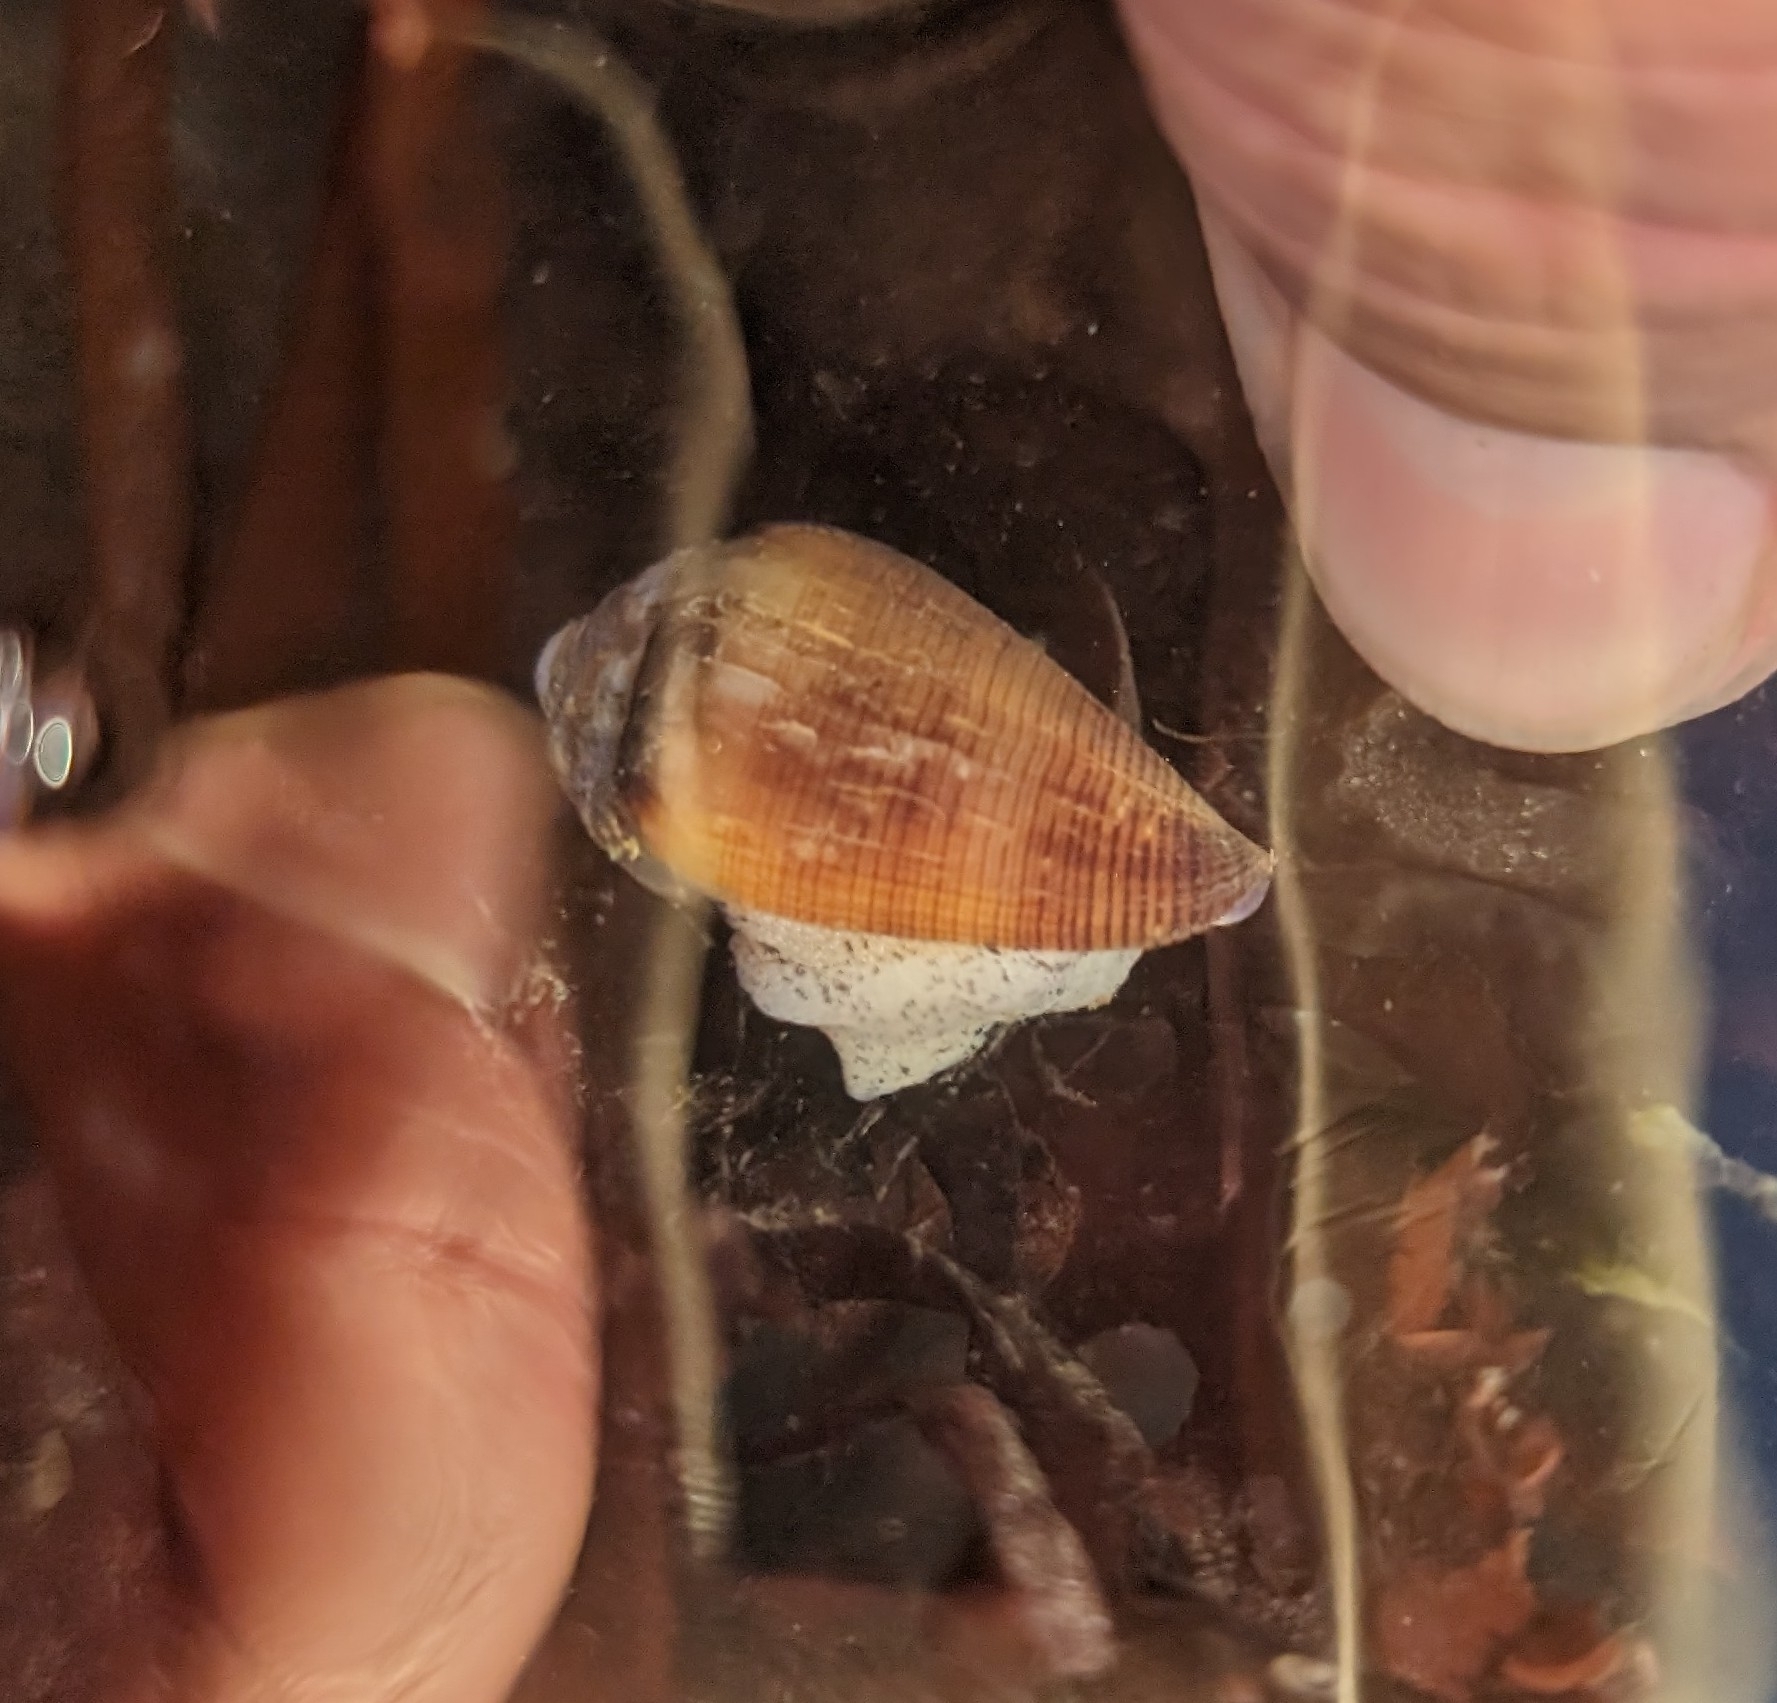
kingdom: Animalia
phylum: Mollusca
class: Gastropoda
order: Neogastropoda
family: Conidae
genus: Californiconus
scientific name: Californiconus californicus
